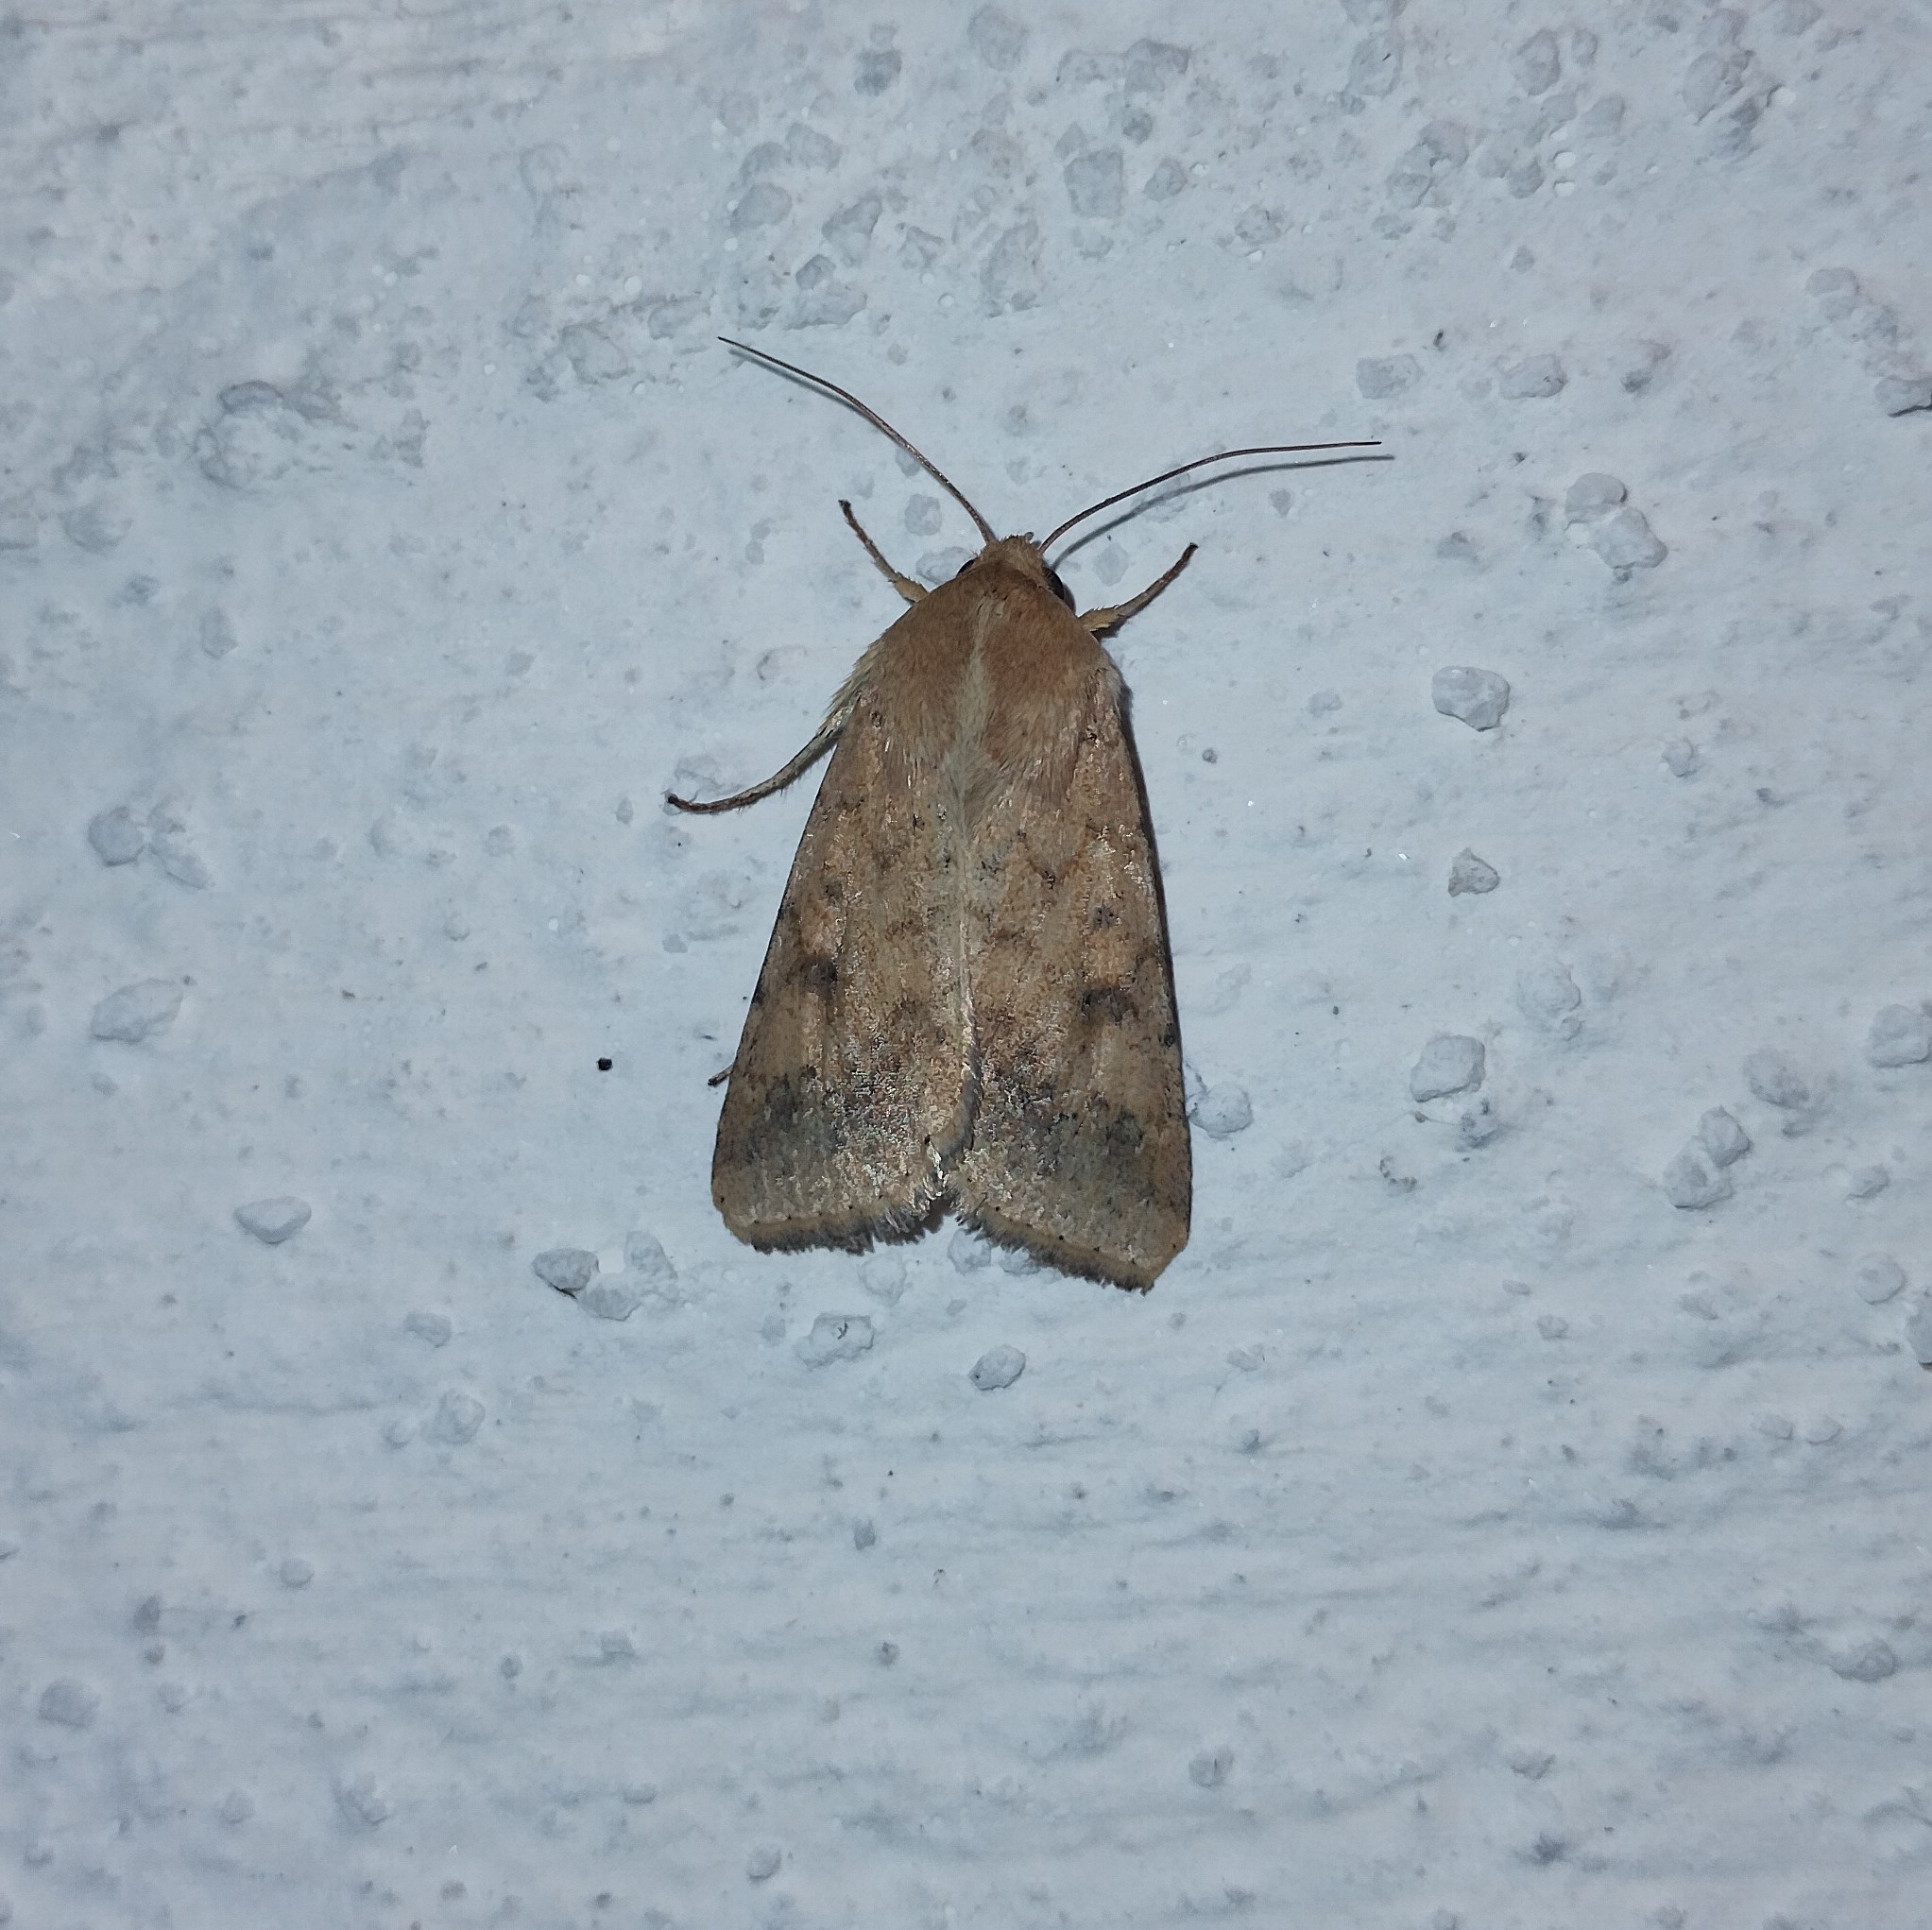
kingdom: Animalia
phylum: Arthropoda
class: Insecta
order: Lepidoptera
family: Noctuidae
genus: Helicoverpa
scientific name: Helicoverpa armigera
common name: Cotton bollworm
